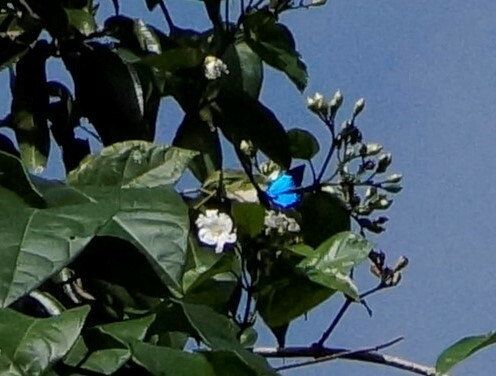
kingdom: Animalia
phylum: Arthropoda
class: Insecta
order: Lepidoptera
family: Papilionidae
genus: Papilio
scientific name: Papilio ulysses
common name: Blue emperor
